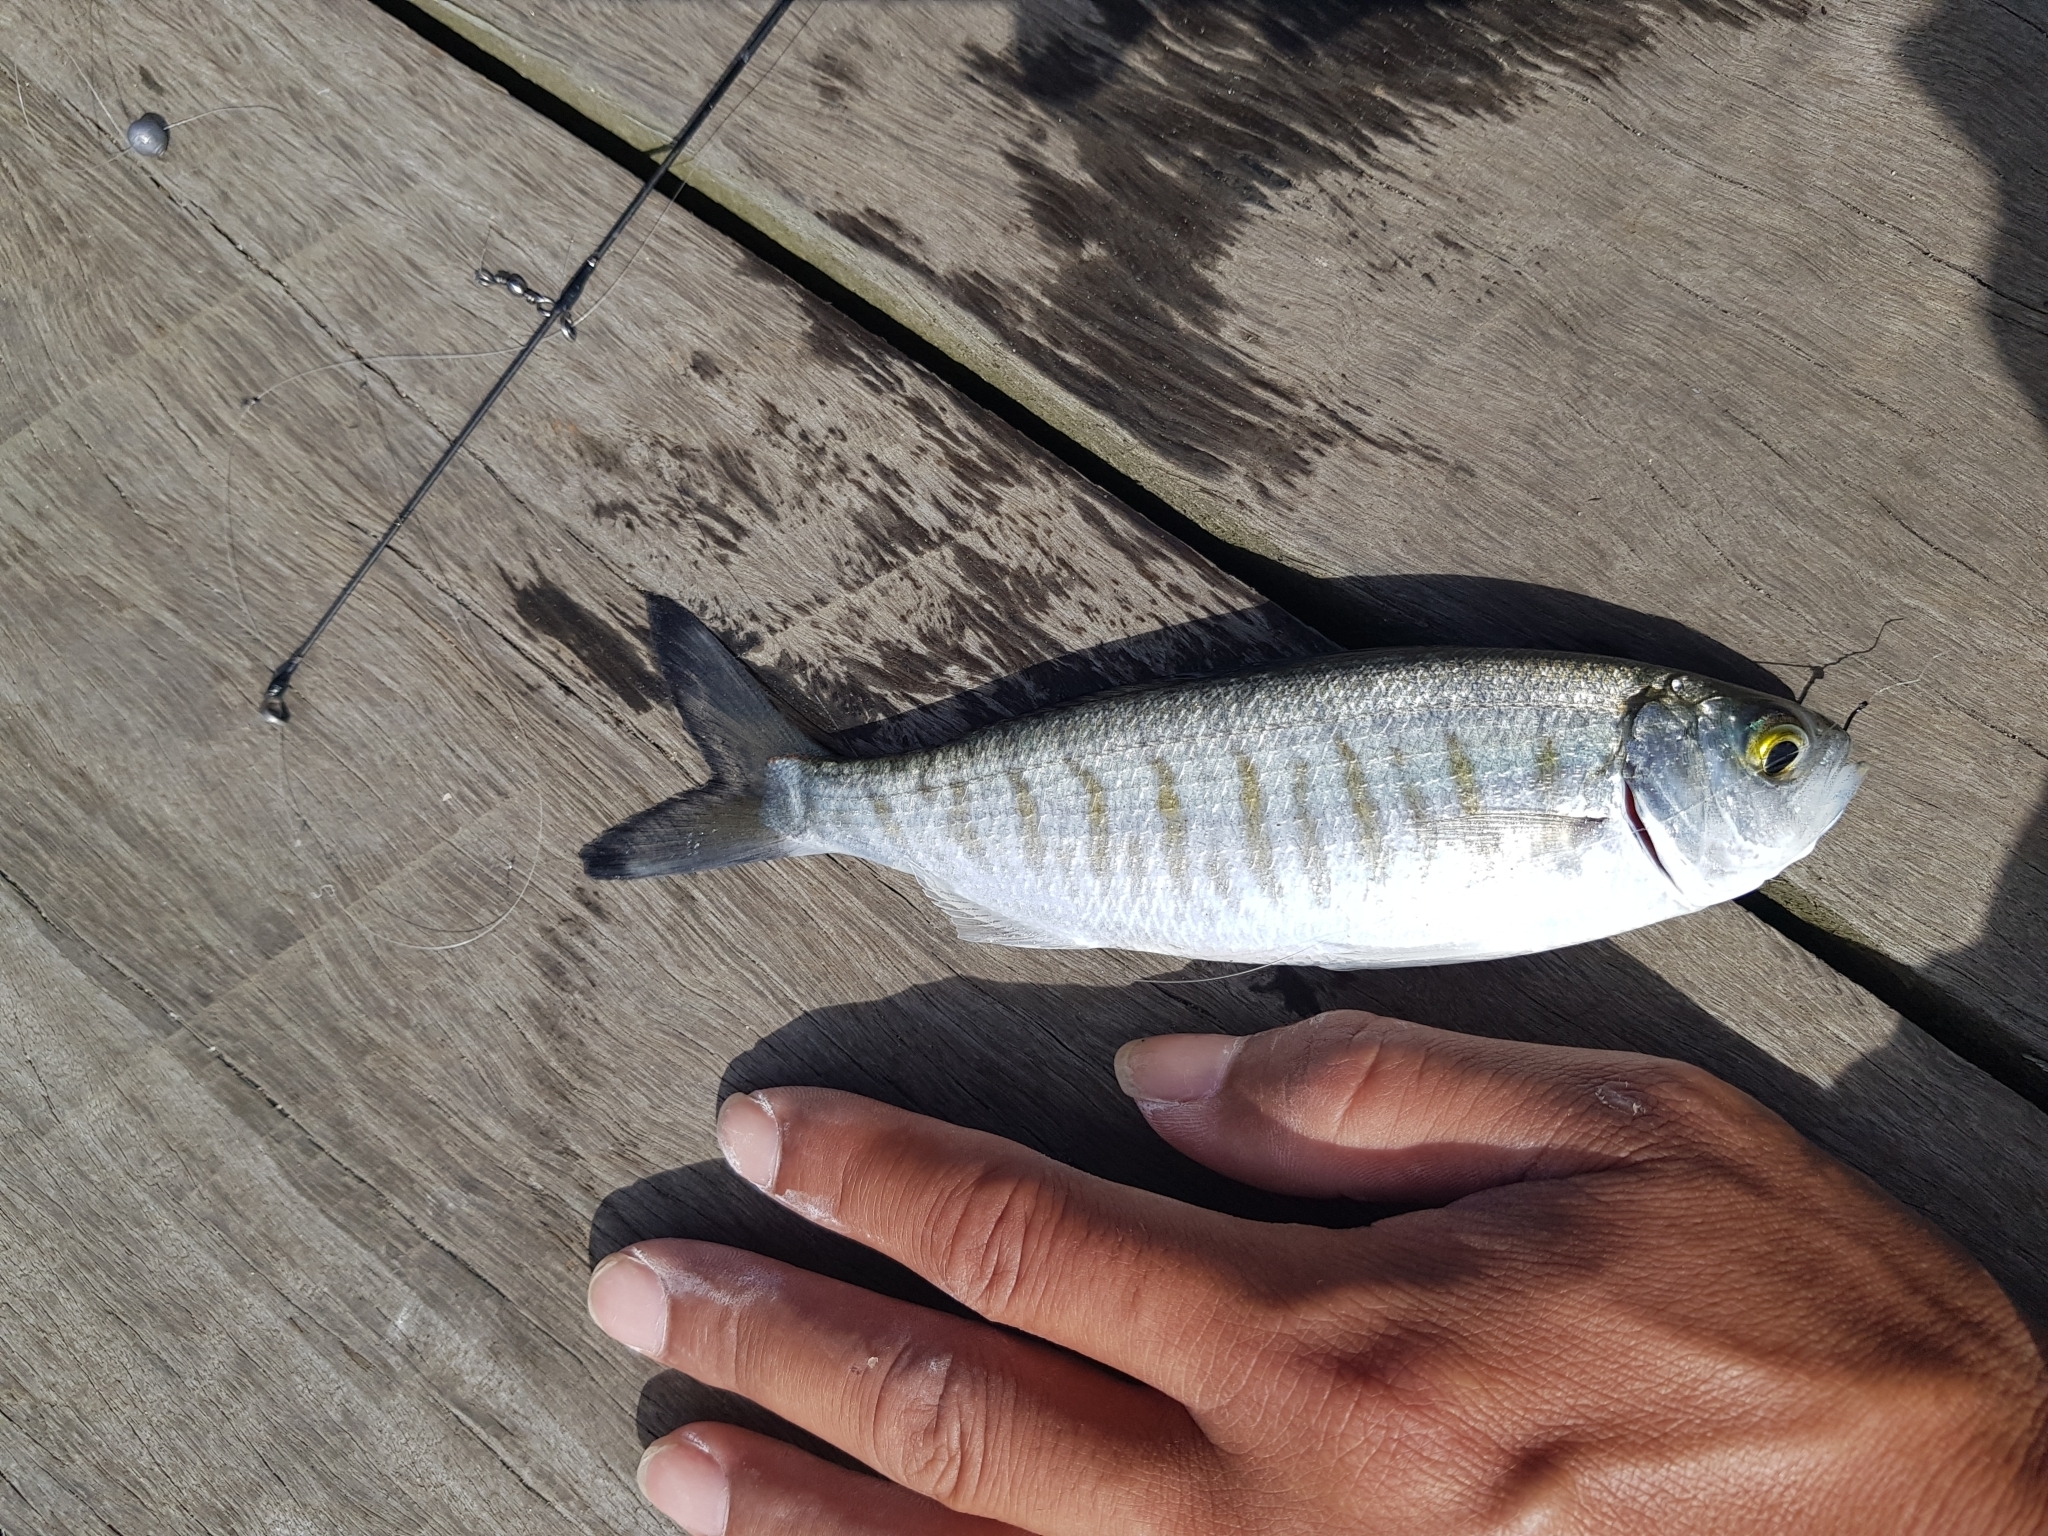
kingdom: Animalia
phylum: Chordata
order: Perciformes
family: Arripidae
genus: Arripis
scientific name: Arripis georgianus
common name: Australian herring
